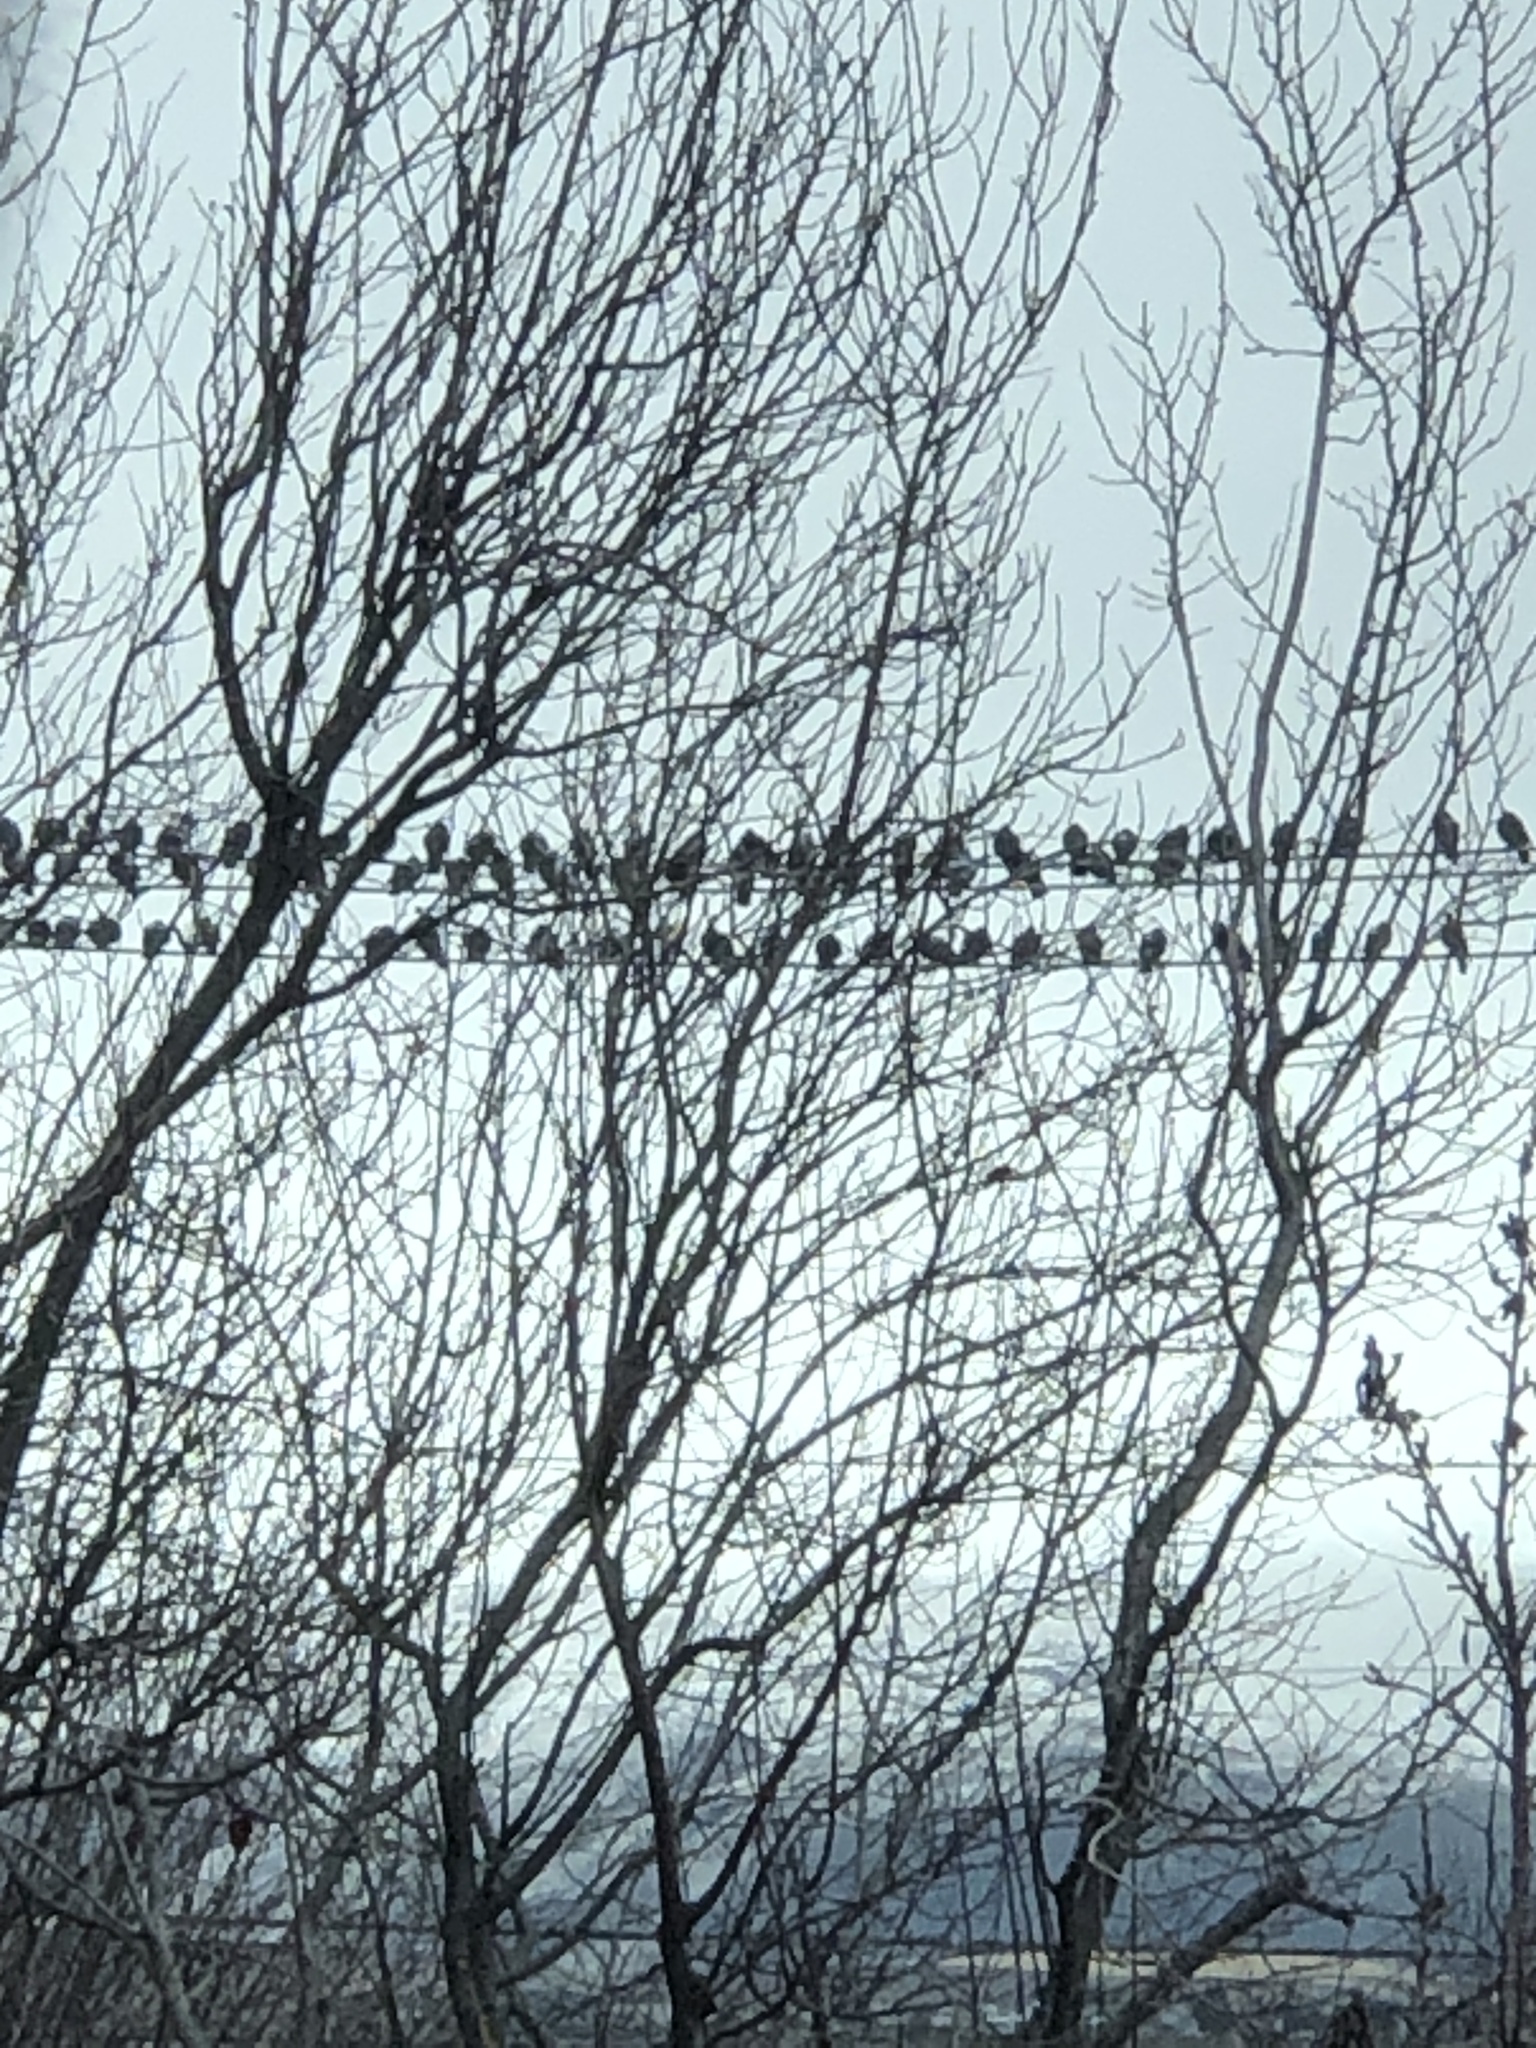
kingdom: Animalia
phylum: Chordata
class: Aves
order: Columbiformes
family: Columbidae
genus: Columba
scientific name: Columba livia
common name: Rock pigeon
